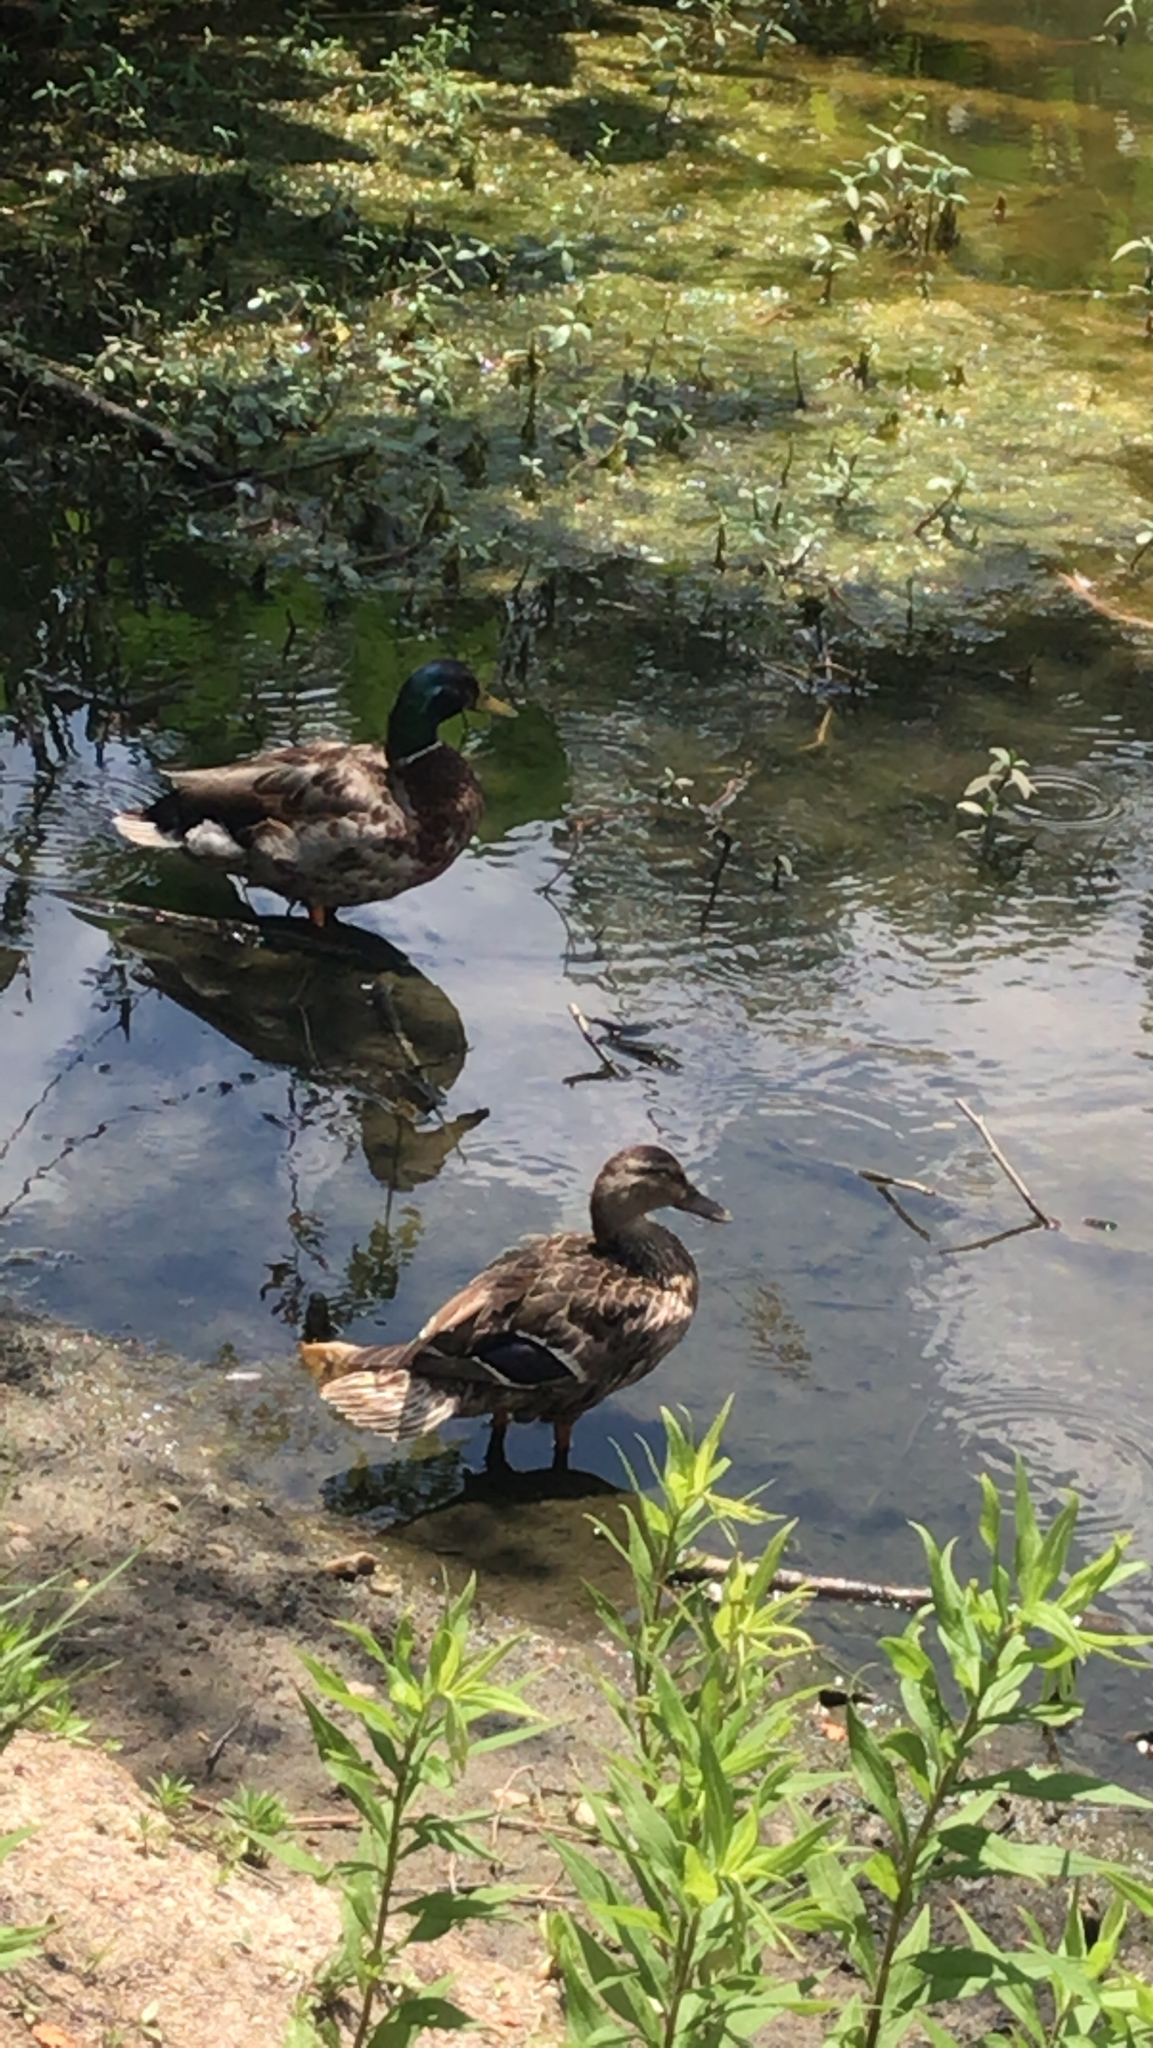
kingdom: Animalia
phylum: Chordata
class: Aves
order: Anseriformes
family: Anatidae
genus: Anas
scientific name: Anas platyrhynchos
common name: Mallard
